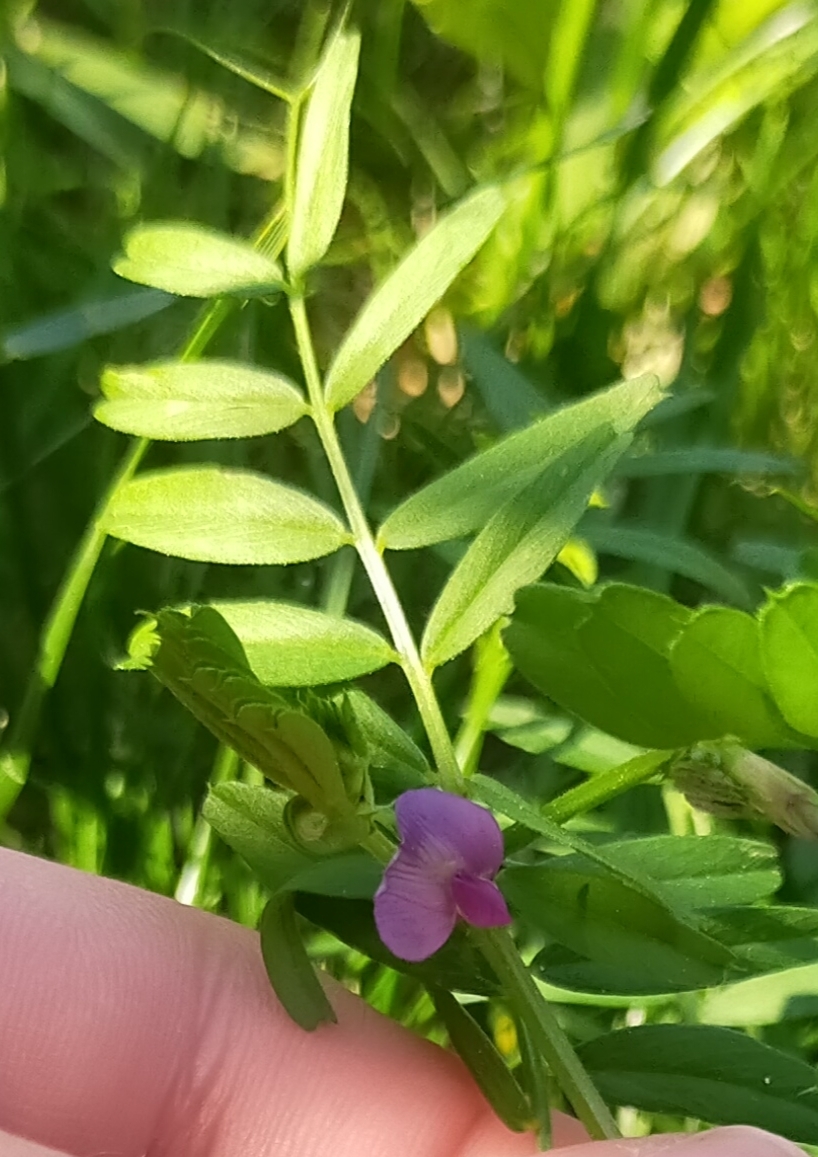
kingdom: Plantae
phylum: Tracheophyta
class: Magnoliopsida
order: Fabales
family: Fabaceae
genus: Vicia
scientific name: Vicia sativa
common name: Garden vetch
